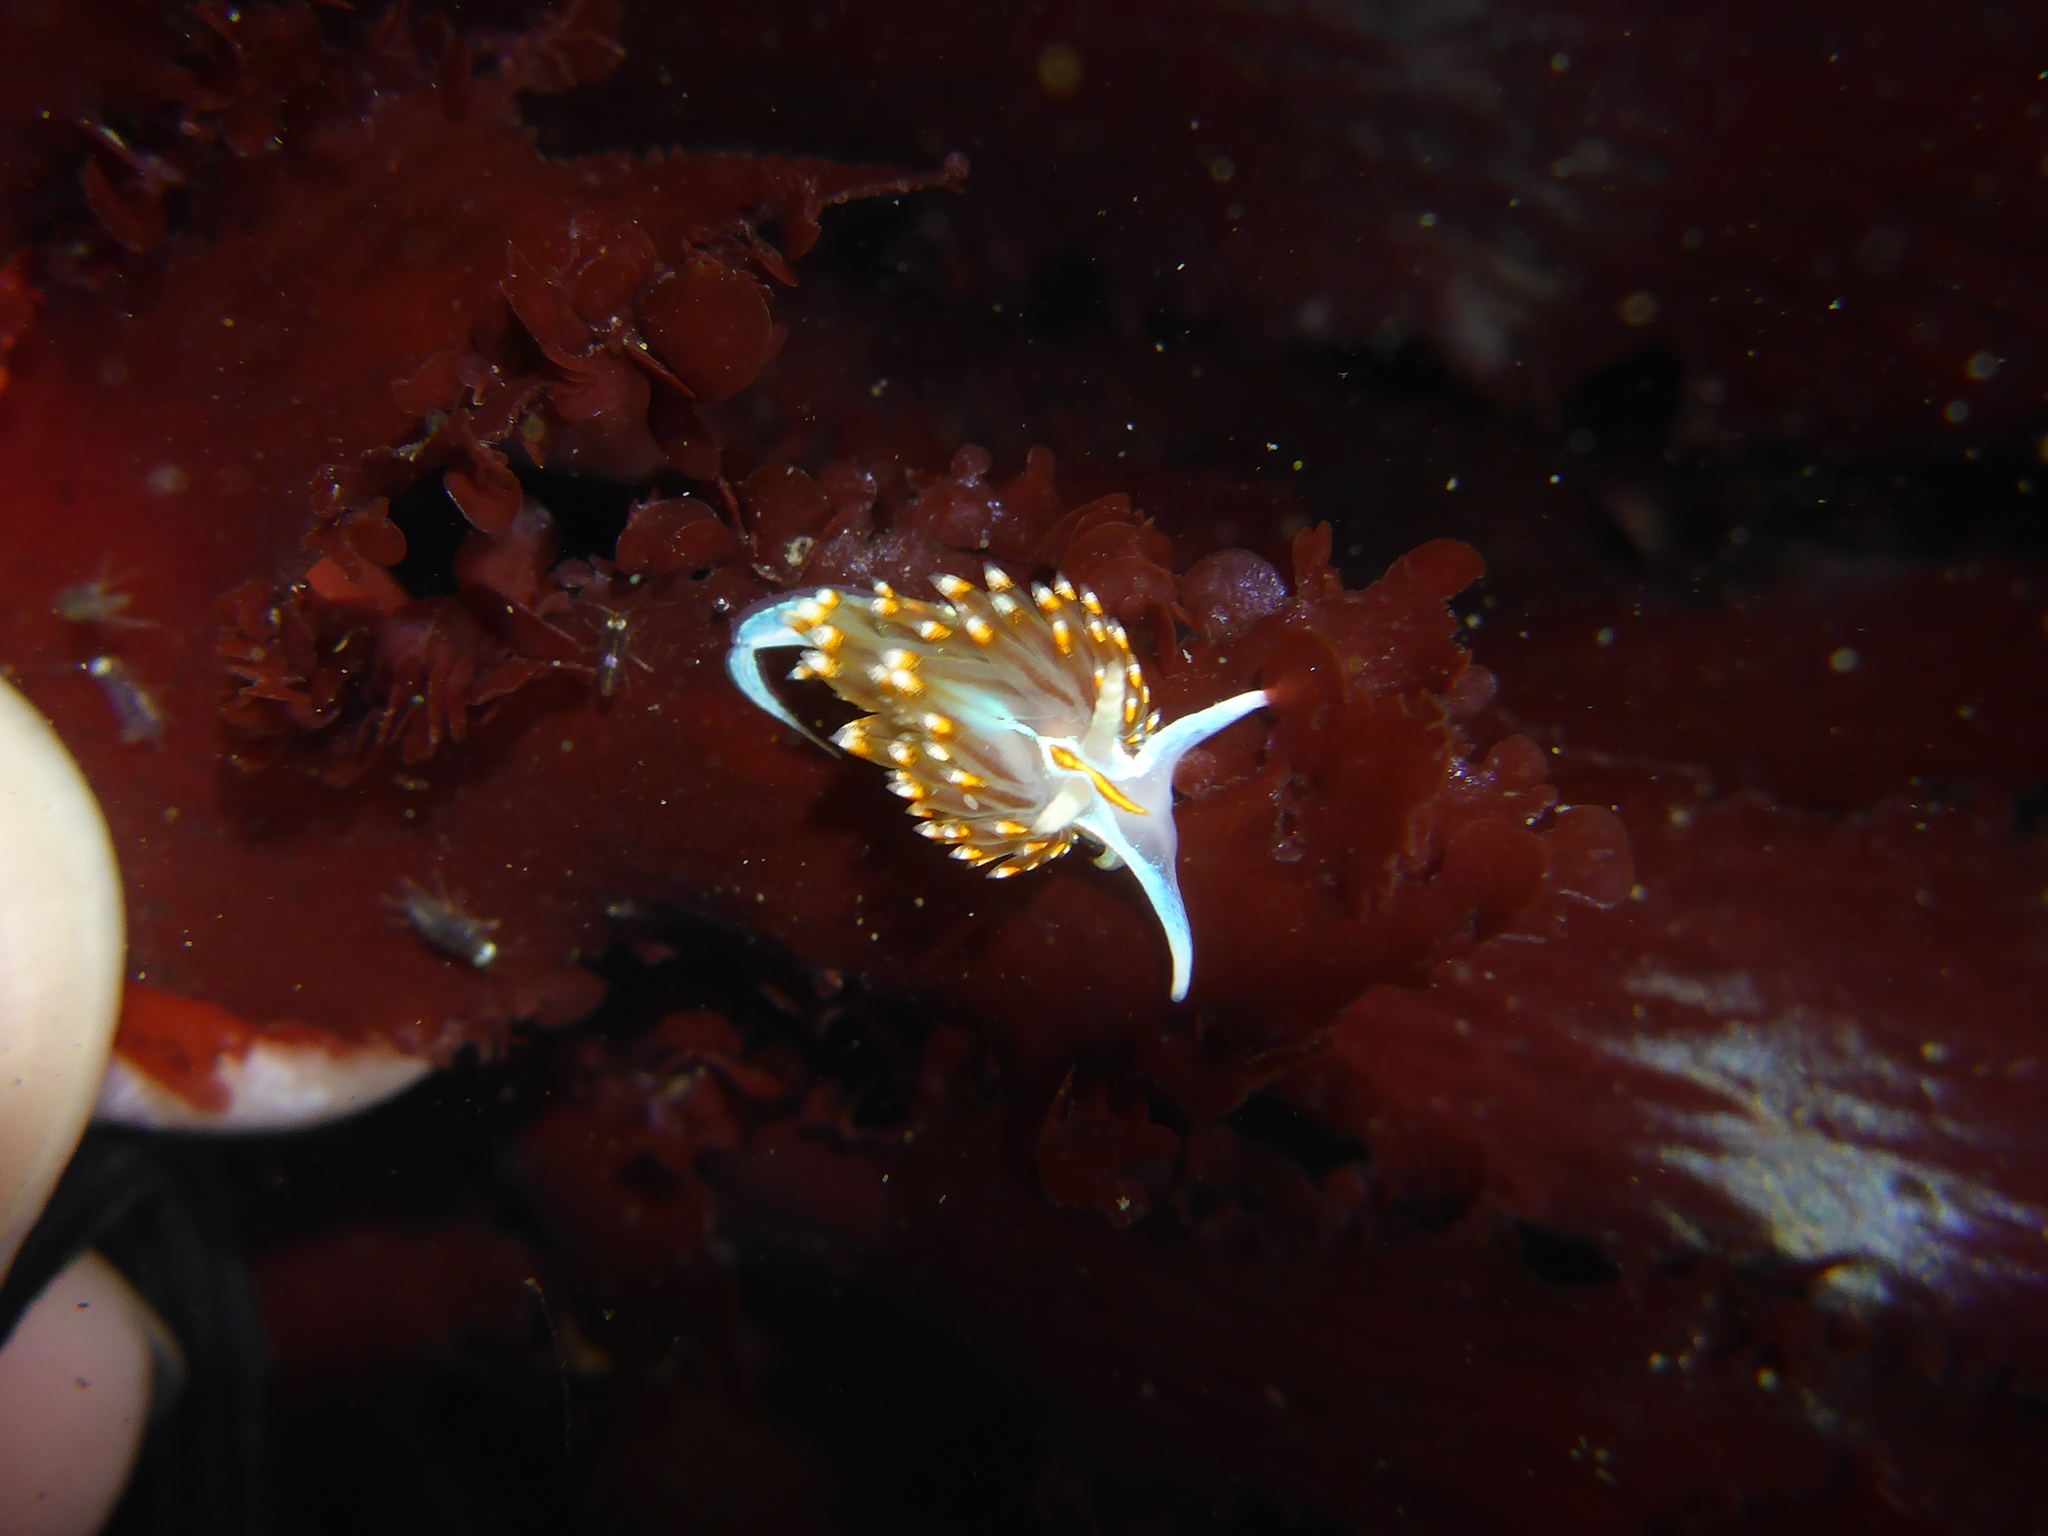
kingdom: Animalia
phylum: Mollusca
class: Gastropoda
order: Nudibranchia
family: Myrrhinidae
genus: Hermissenda
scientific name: Hermissenda opalescens
